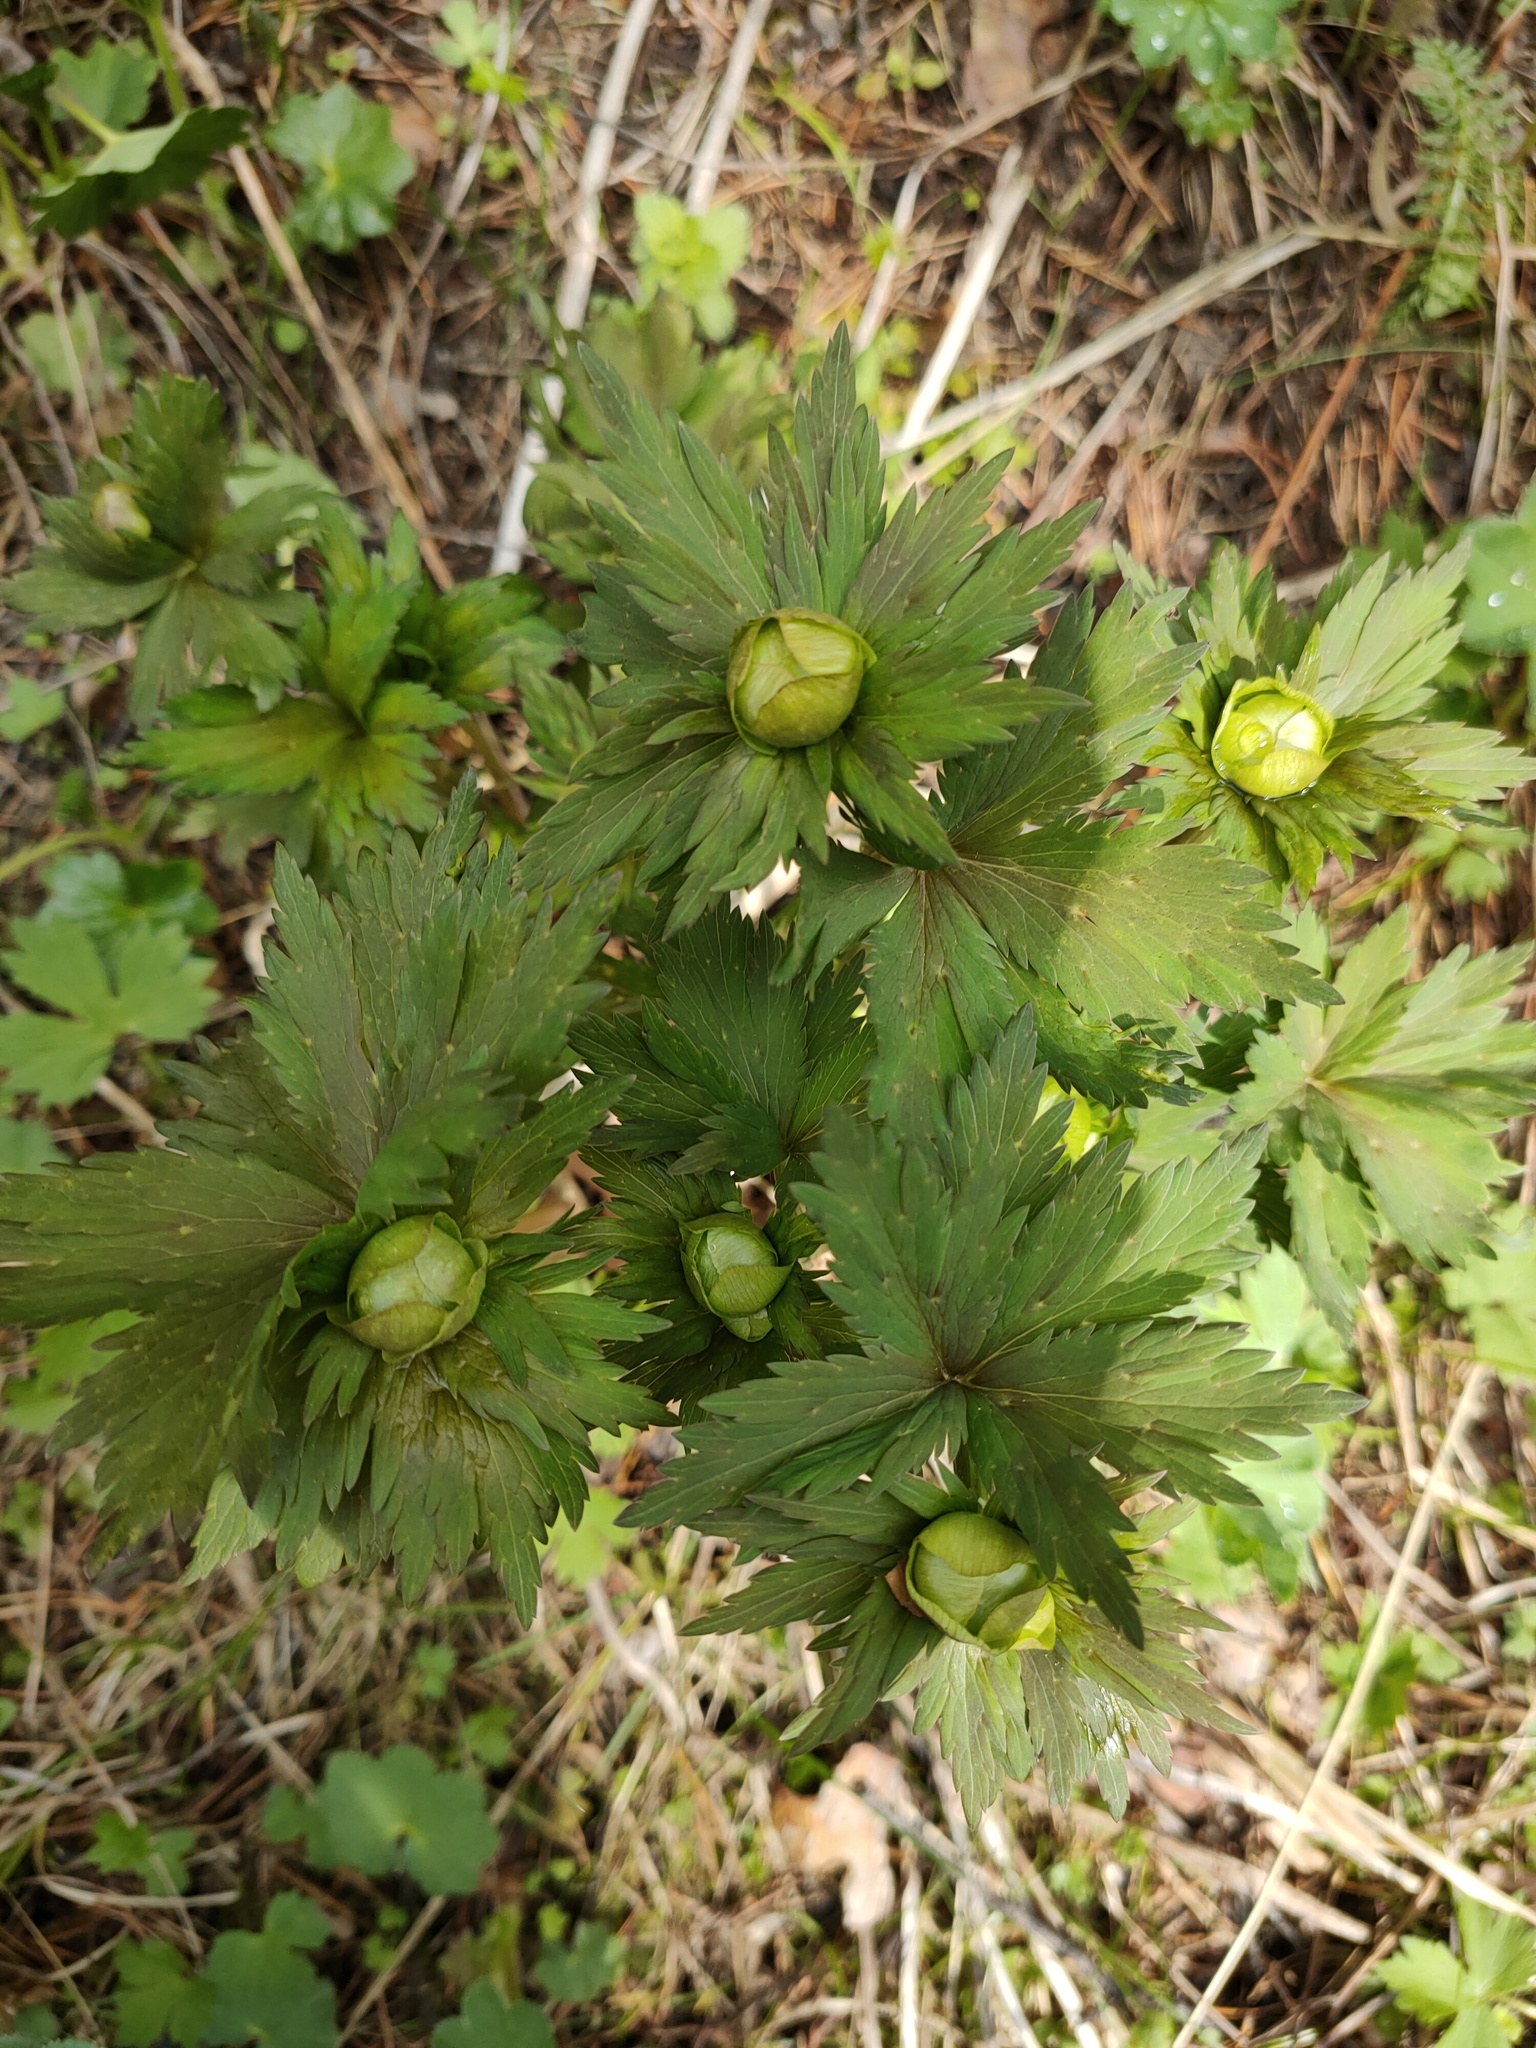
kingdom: Plantae
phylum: Tracheophyta
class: Magnoliopsida
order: Ranunculales
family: Ranunculaceae
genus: Trollius
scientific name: Trollius europaeus
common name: European globeflower
